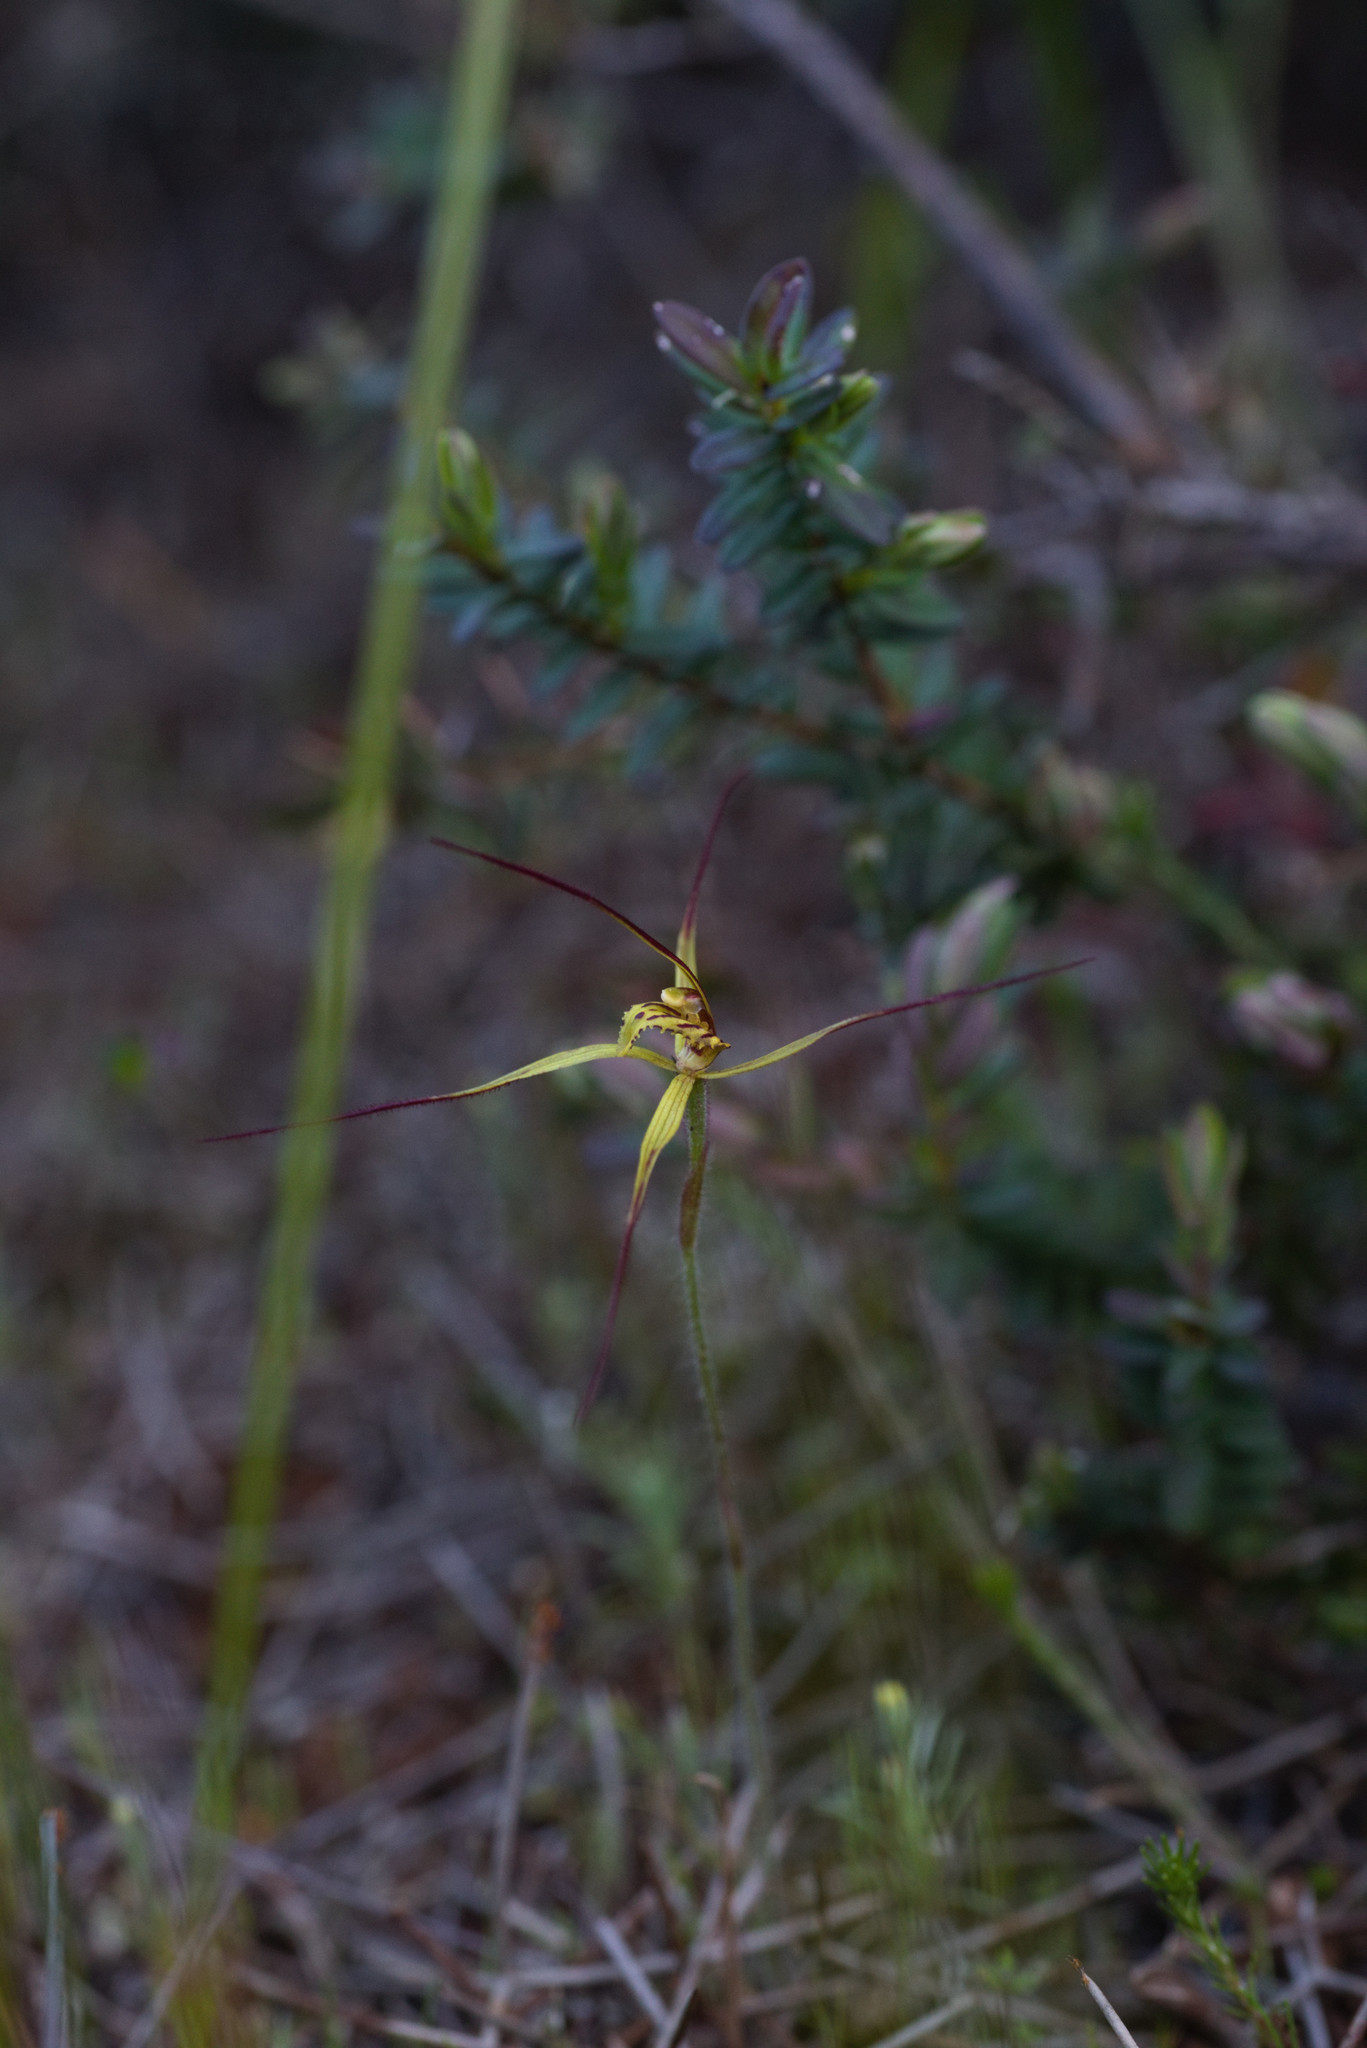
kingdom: Plantae
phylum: Tracheophyta
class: Liliopsida
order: Asparagales
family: Orchidaceae
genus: Caladenia
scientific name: Caladenia caesarea
